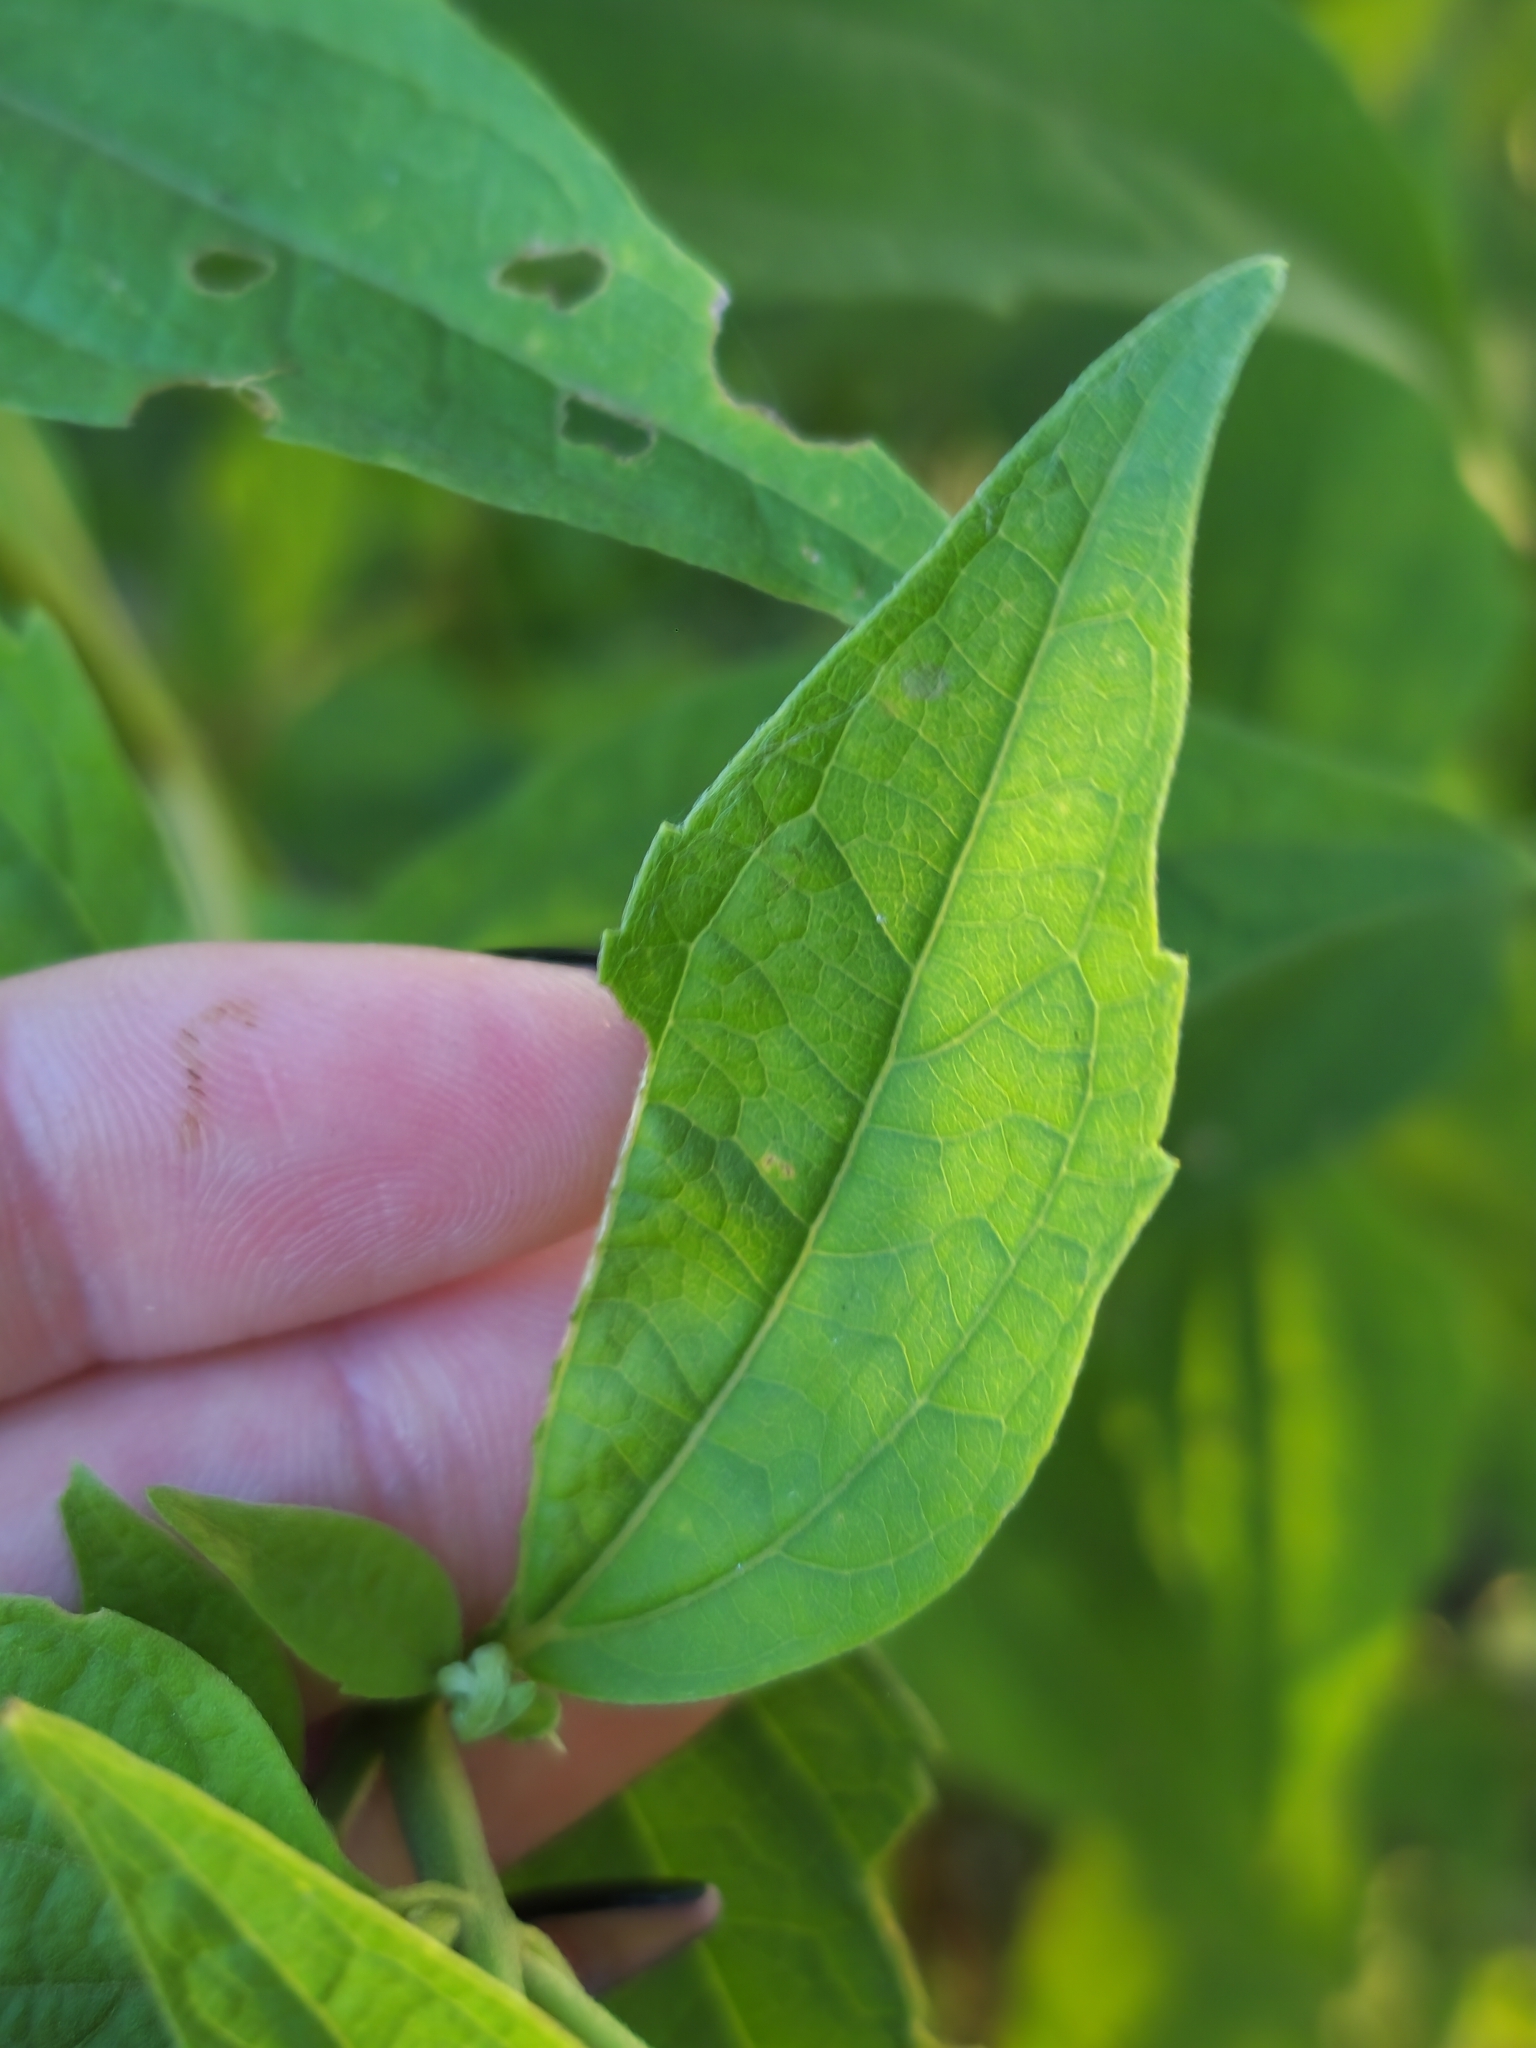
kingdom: Plantae
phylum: Tracheophyta
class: Magnoliopsida
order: Asterales
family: Asteraceae
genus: Chromolaena
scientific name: Chromolaena hookeriana
